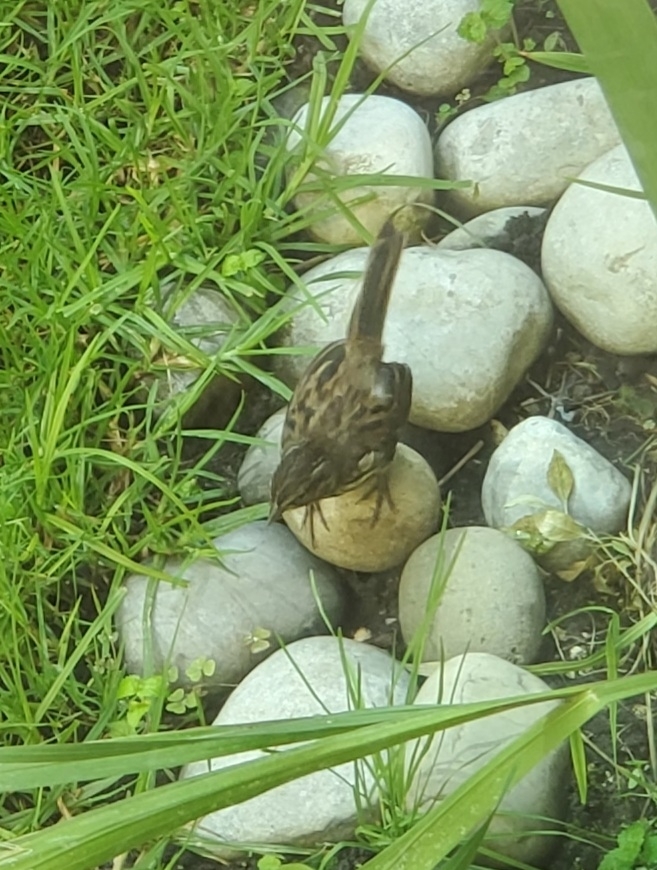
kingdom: Animalia
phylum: Chordata
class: Aves
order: Passeriformes
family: Passerellidae
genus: Melospiza
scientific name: Melospiza melodia
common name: Song sparrow
